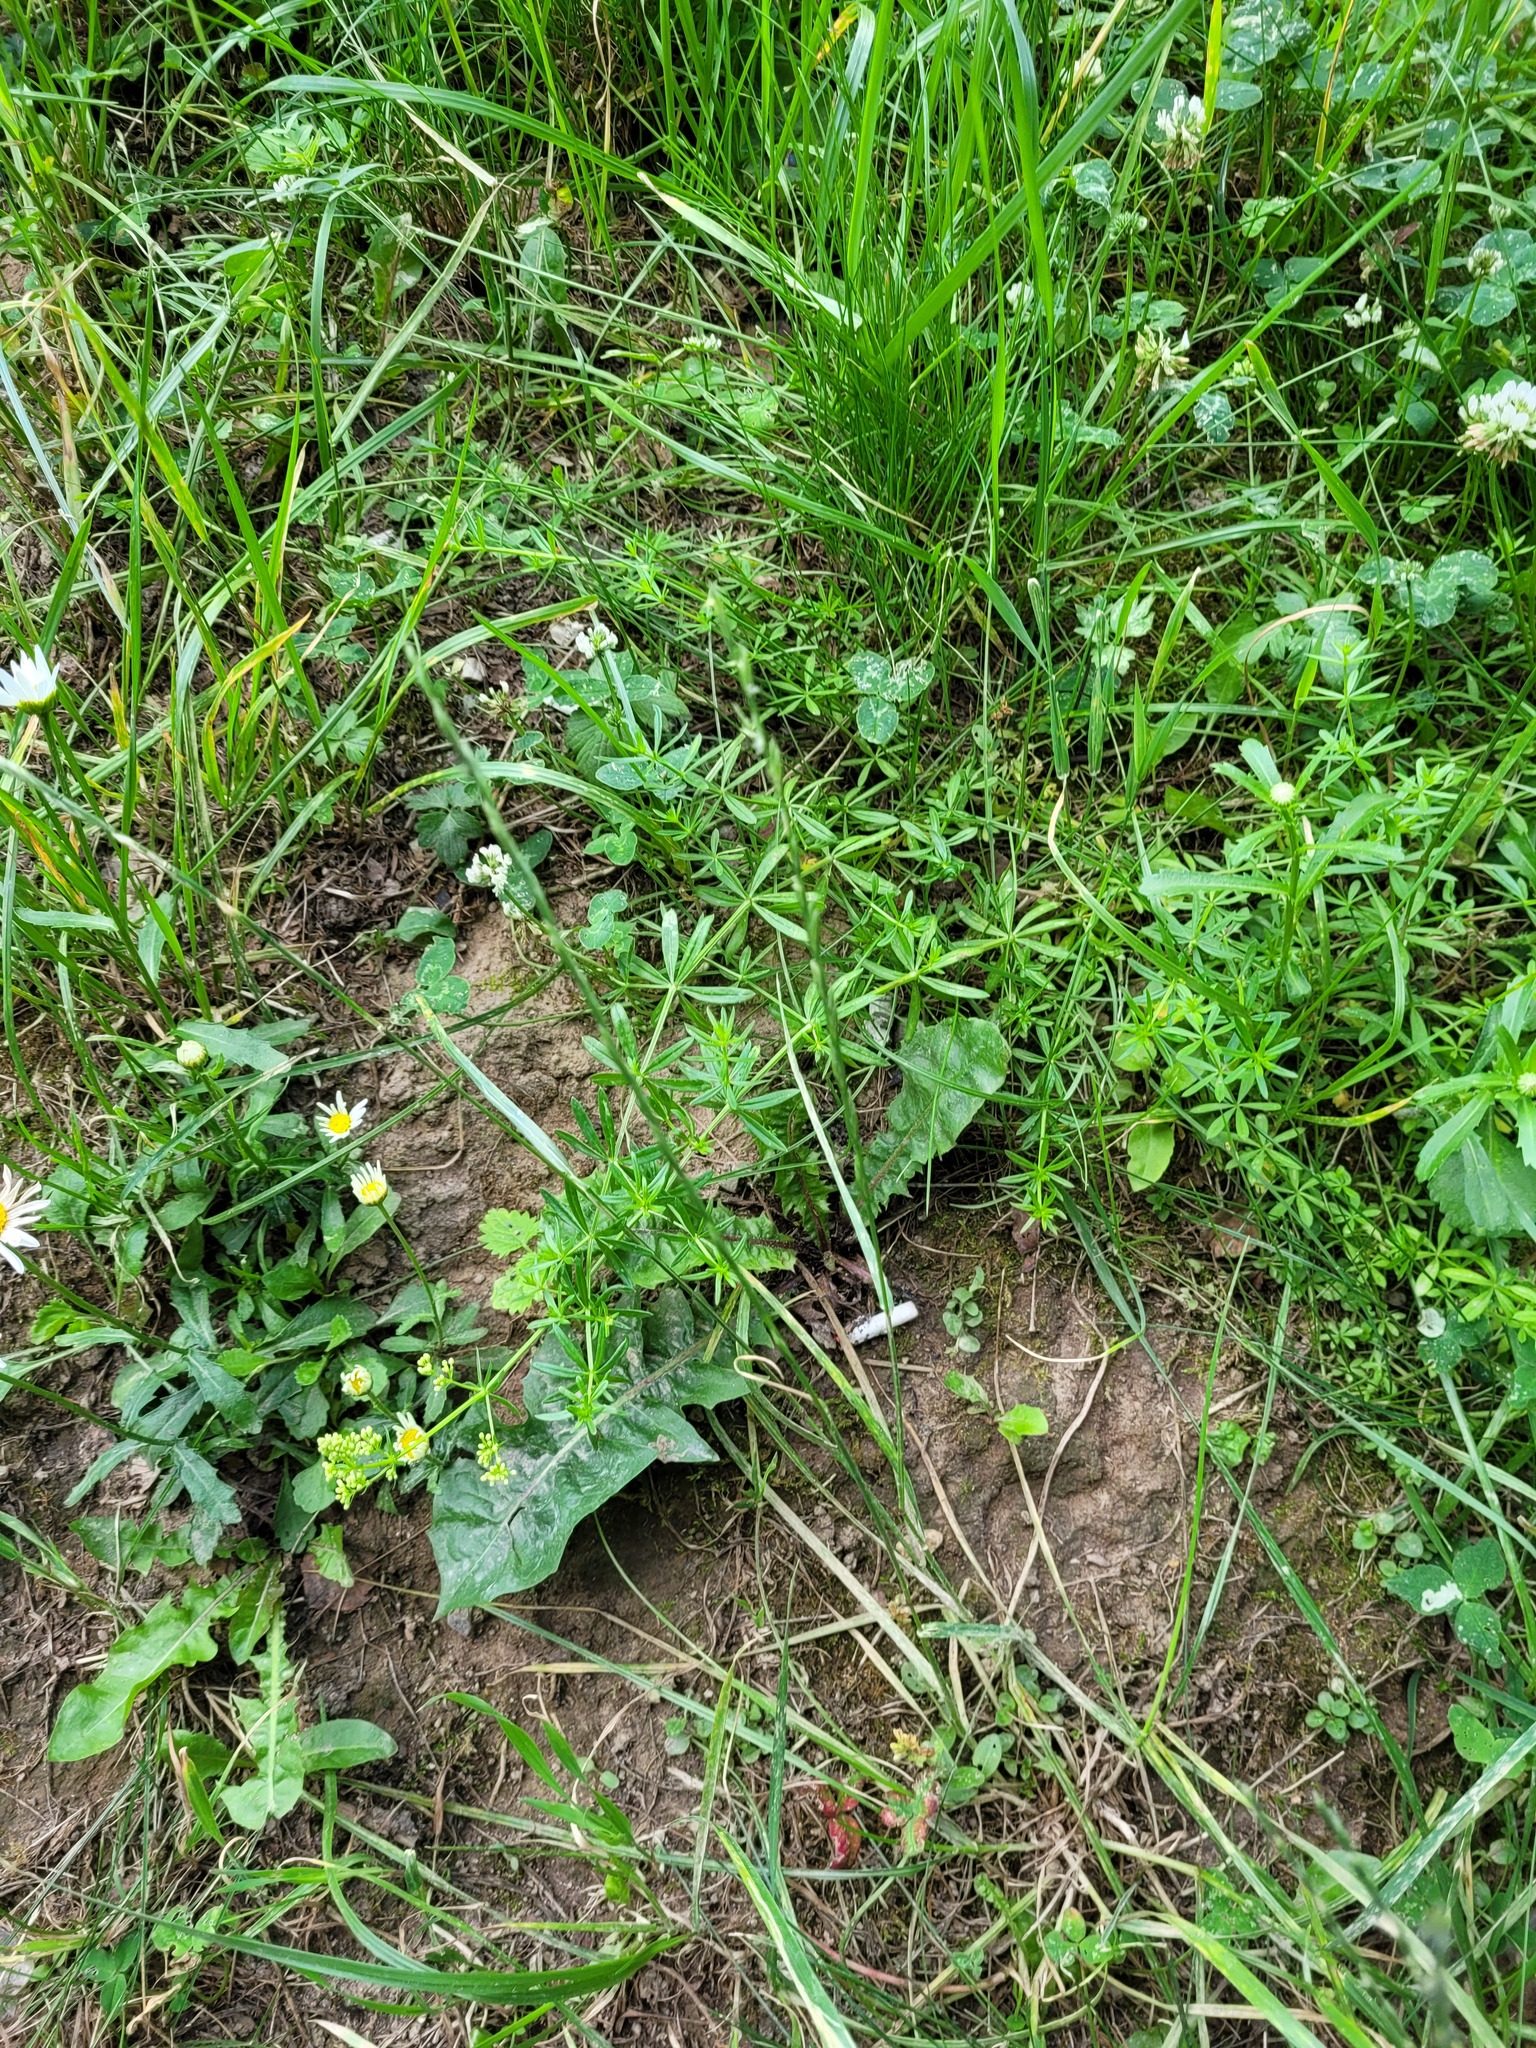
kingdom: Plantae
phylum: Tracheophyta
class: Magnoliopsida
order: Gentianales
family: Rubiaceae
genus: Galium
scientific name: Galium mollugo
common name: Hedge bedstraw
